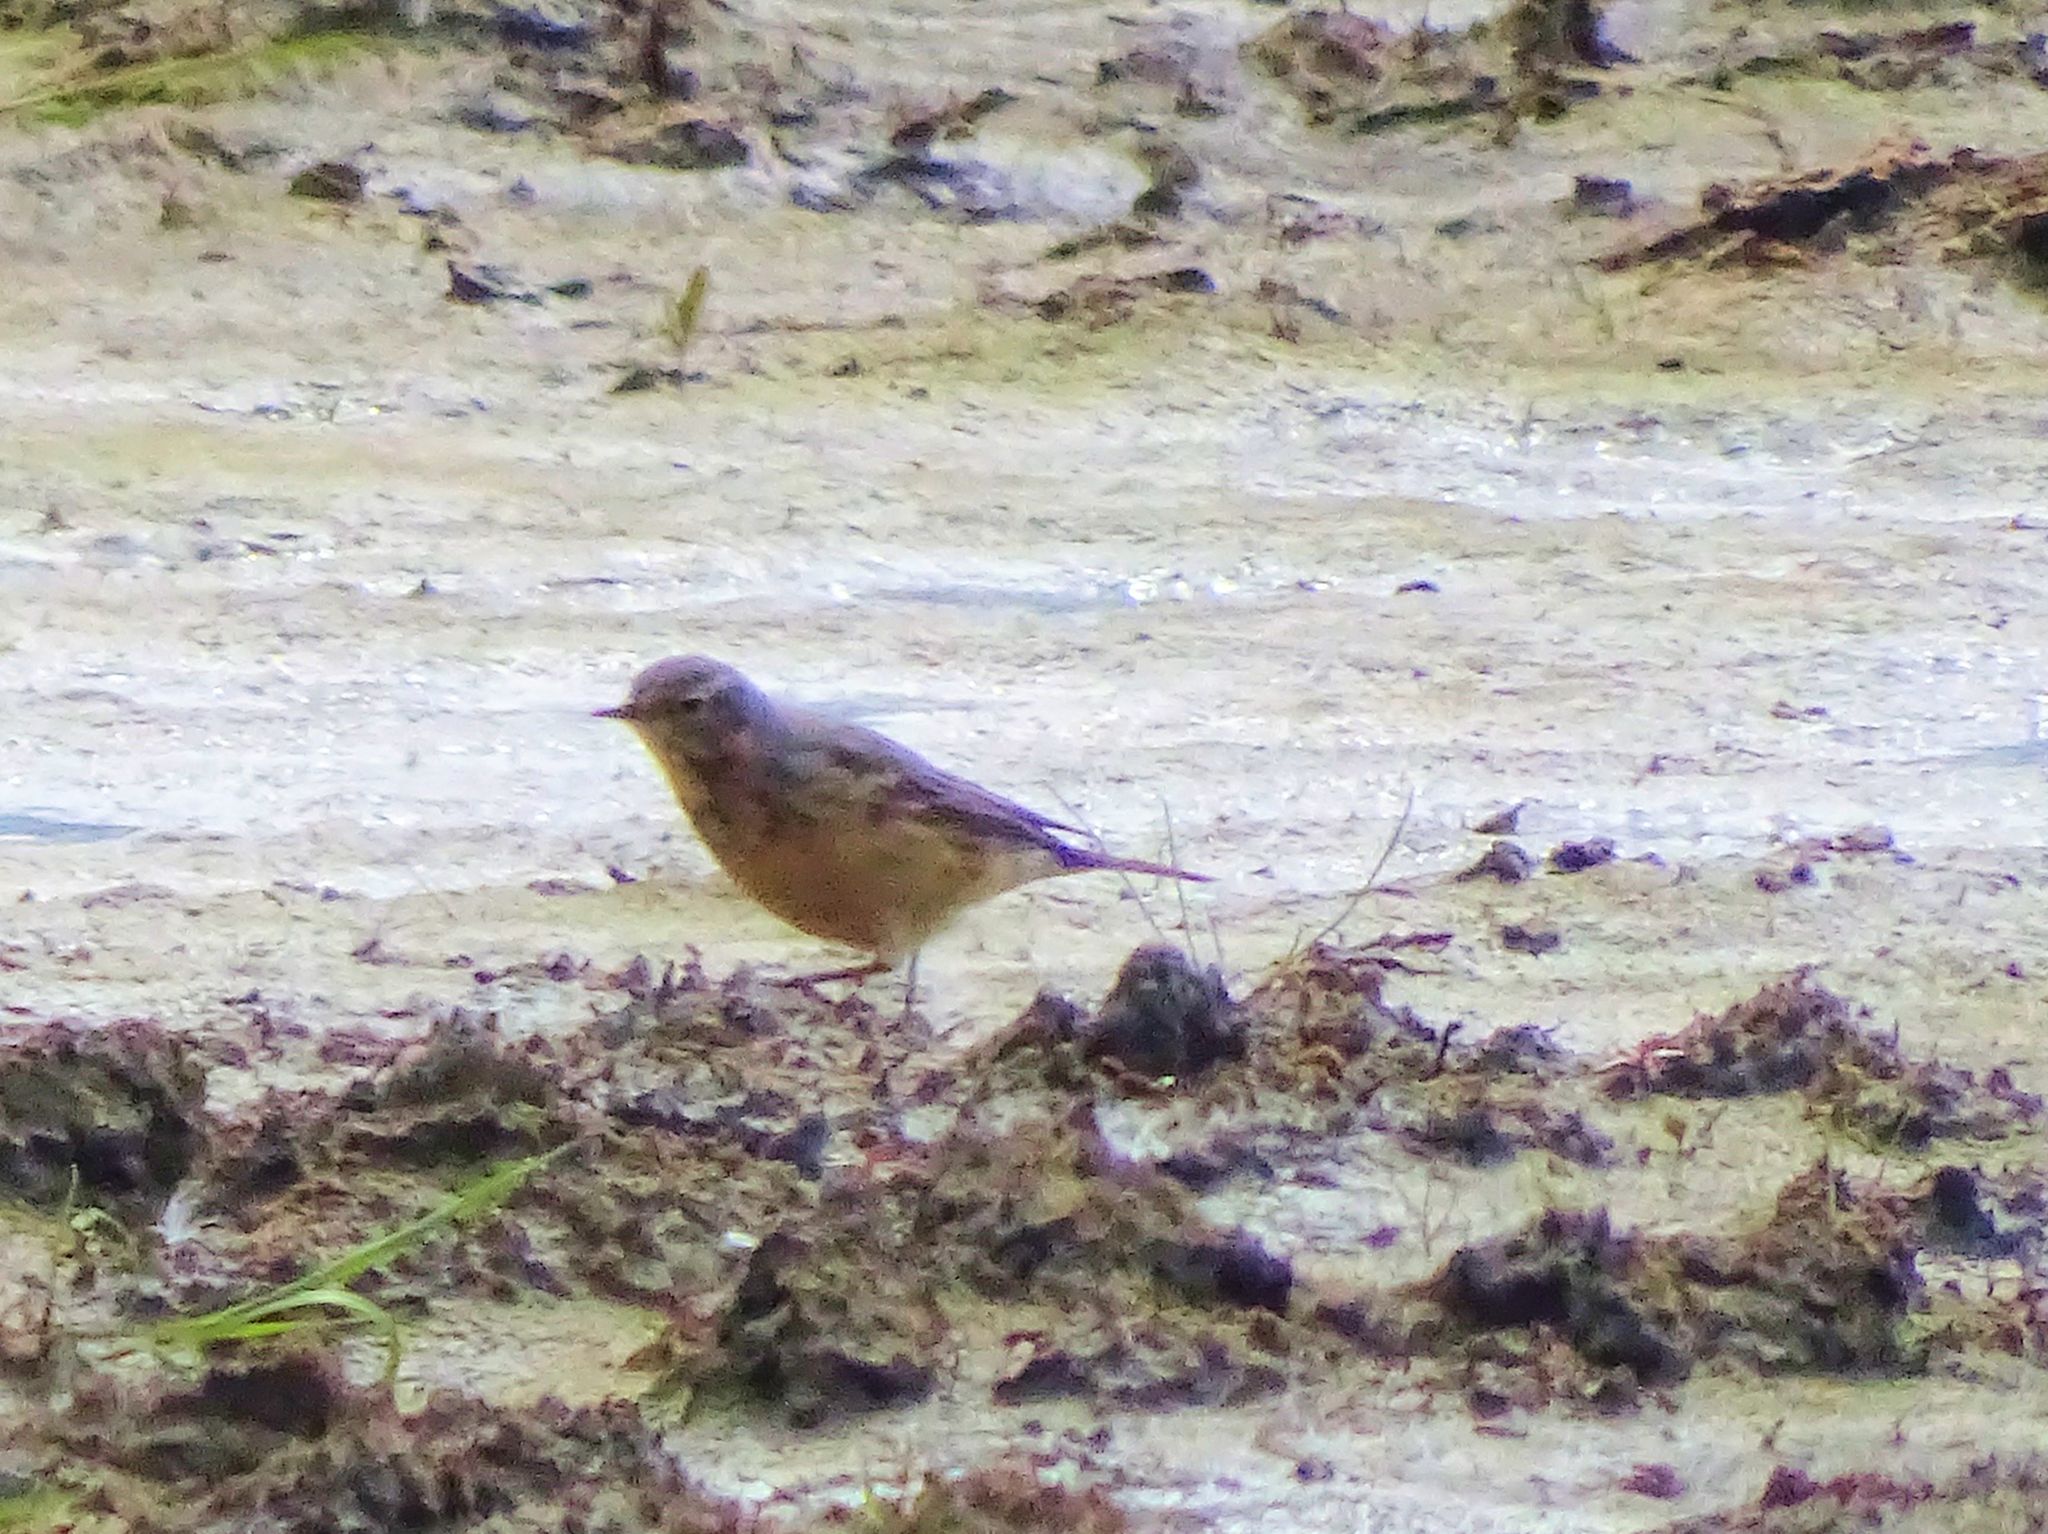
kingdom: Animalia
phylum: Chordata
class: Aves
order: Passeriformes
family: Motacillidae
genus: Anthus
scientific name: Anthus rubescens
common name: Buff-bellied pipit
